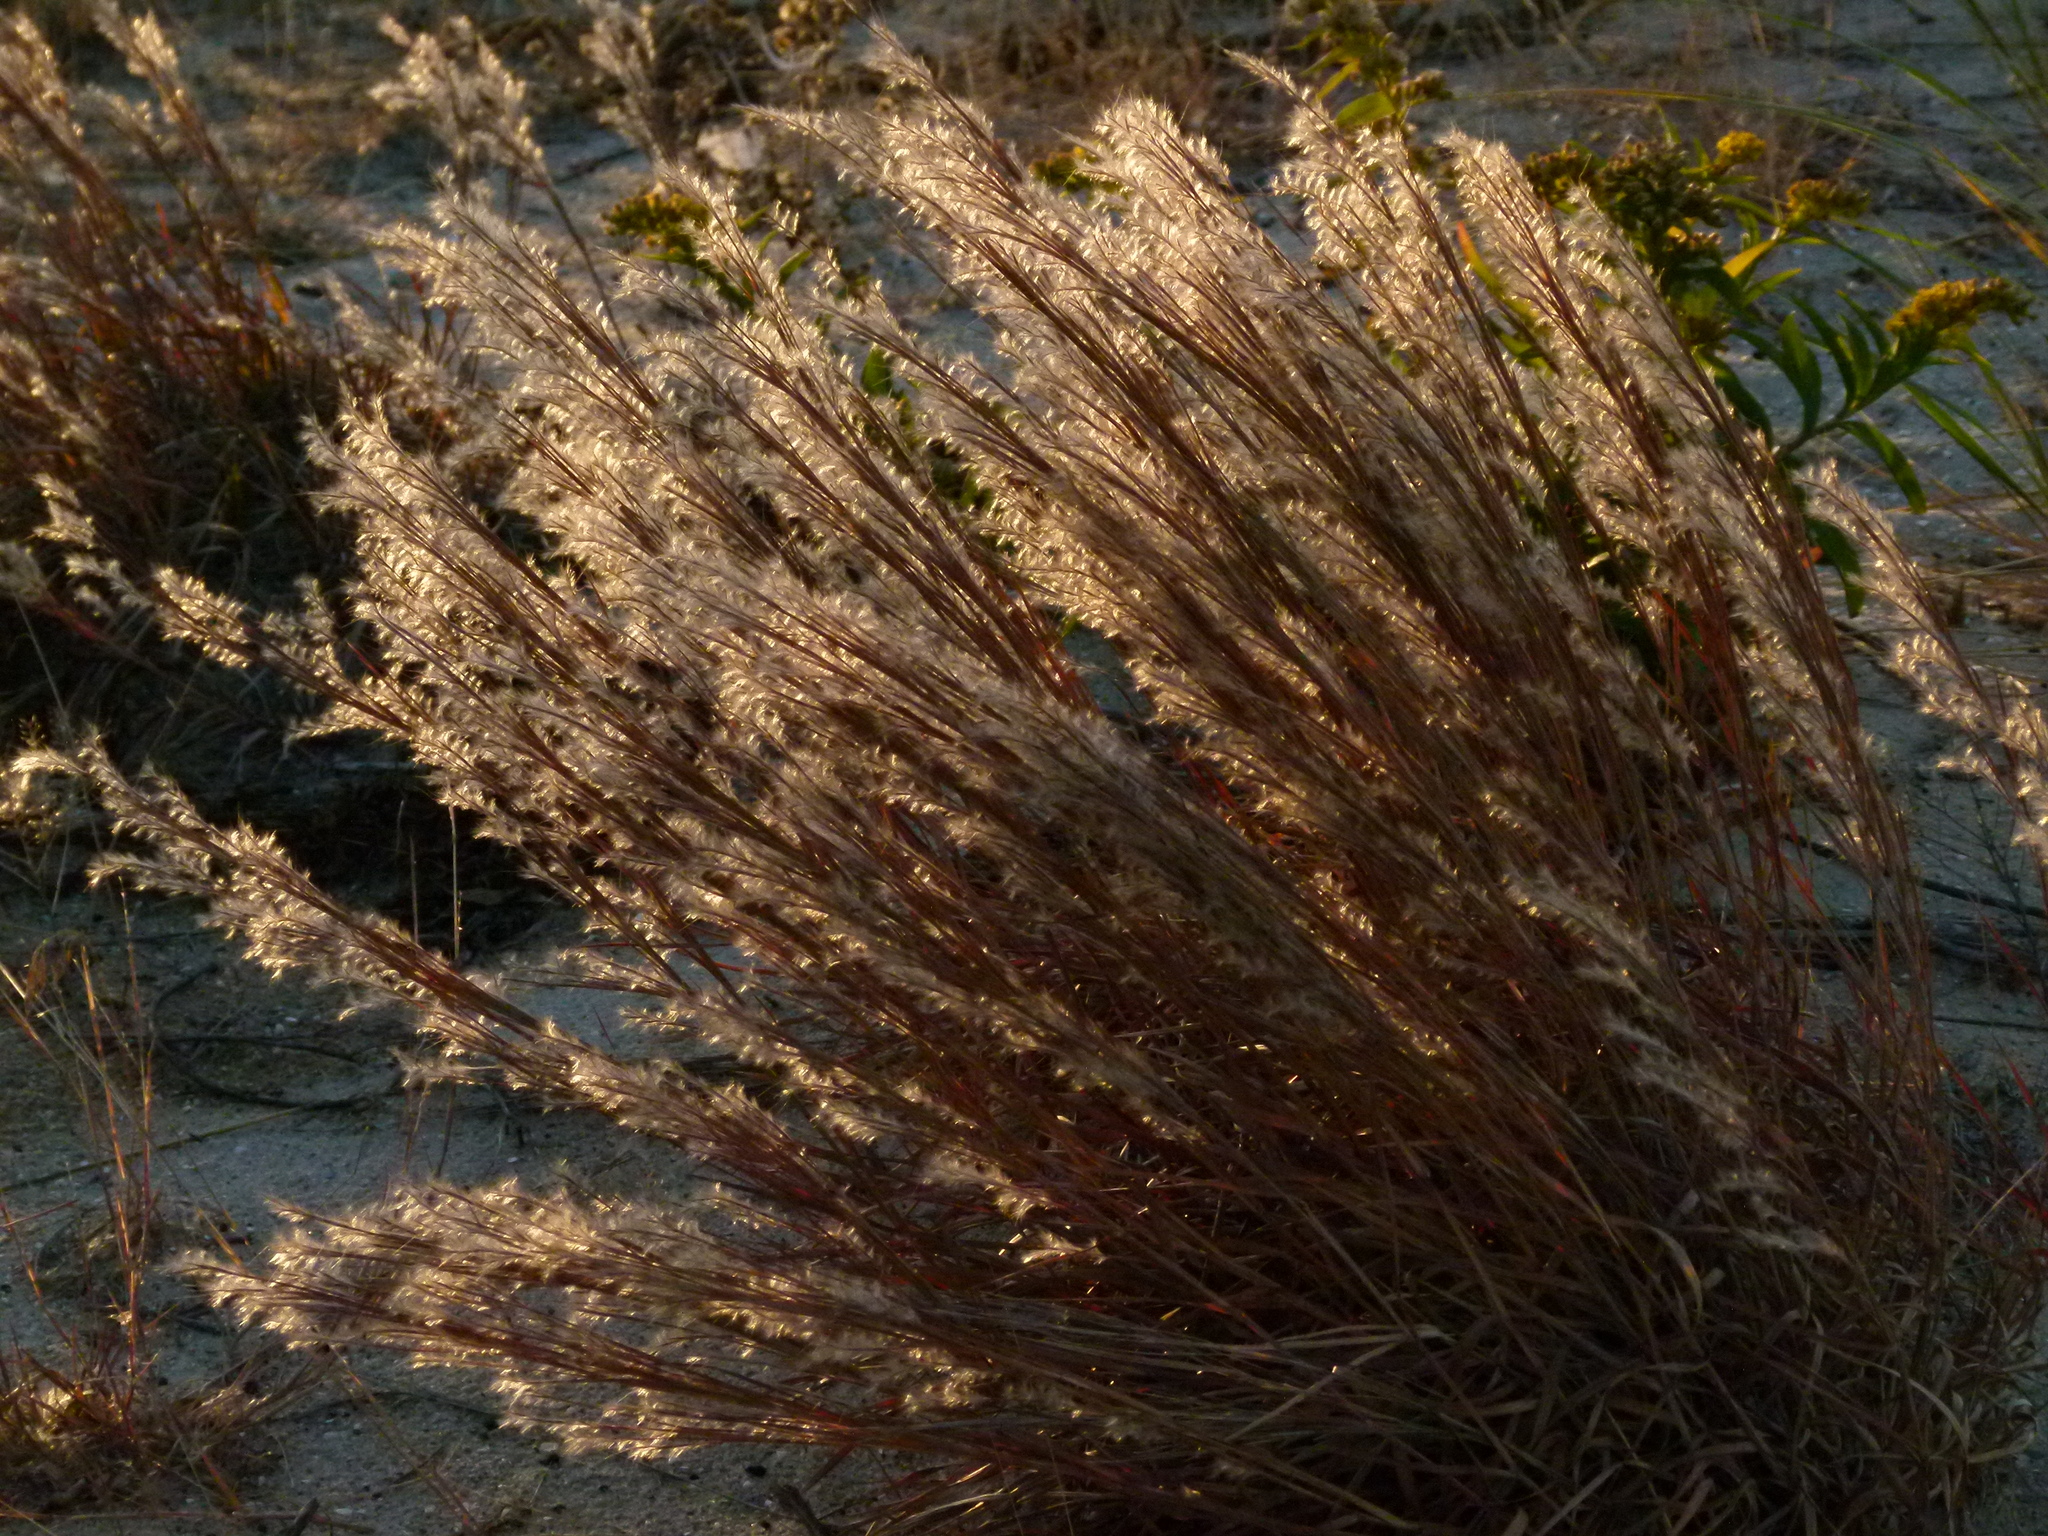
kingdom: Plantae
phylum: Tracheophyta
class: Liliopsida
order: Poales
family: Poaceae
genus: Schizachyrium
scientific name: Schizachyrium scoparium
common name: Little bluestem
